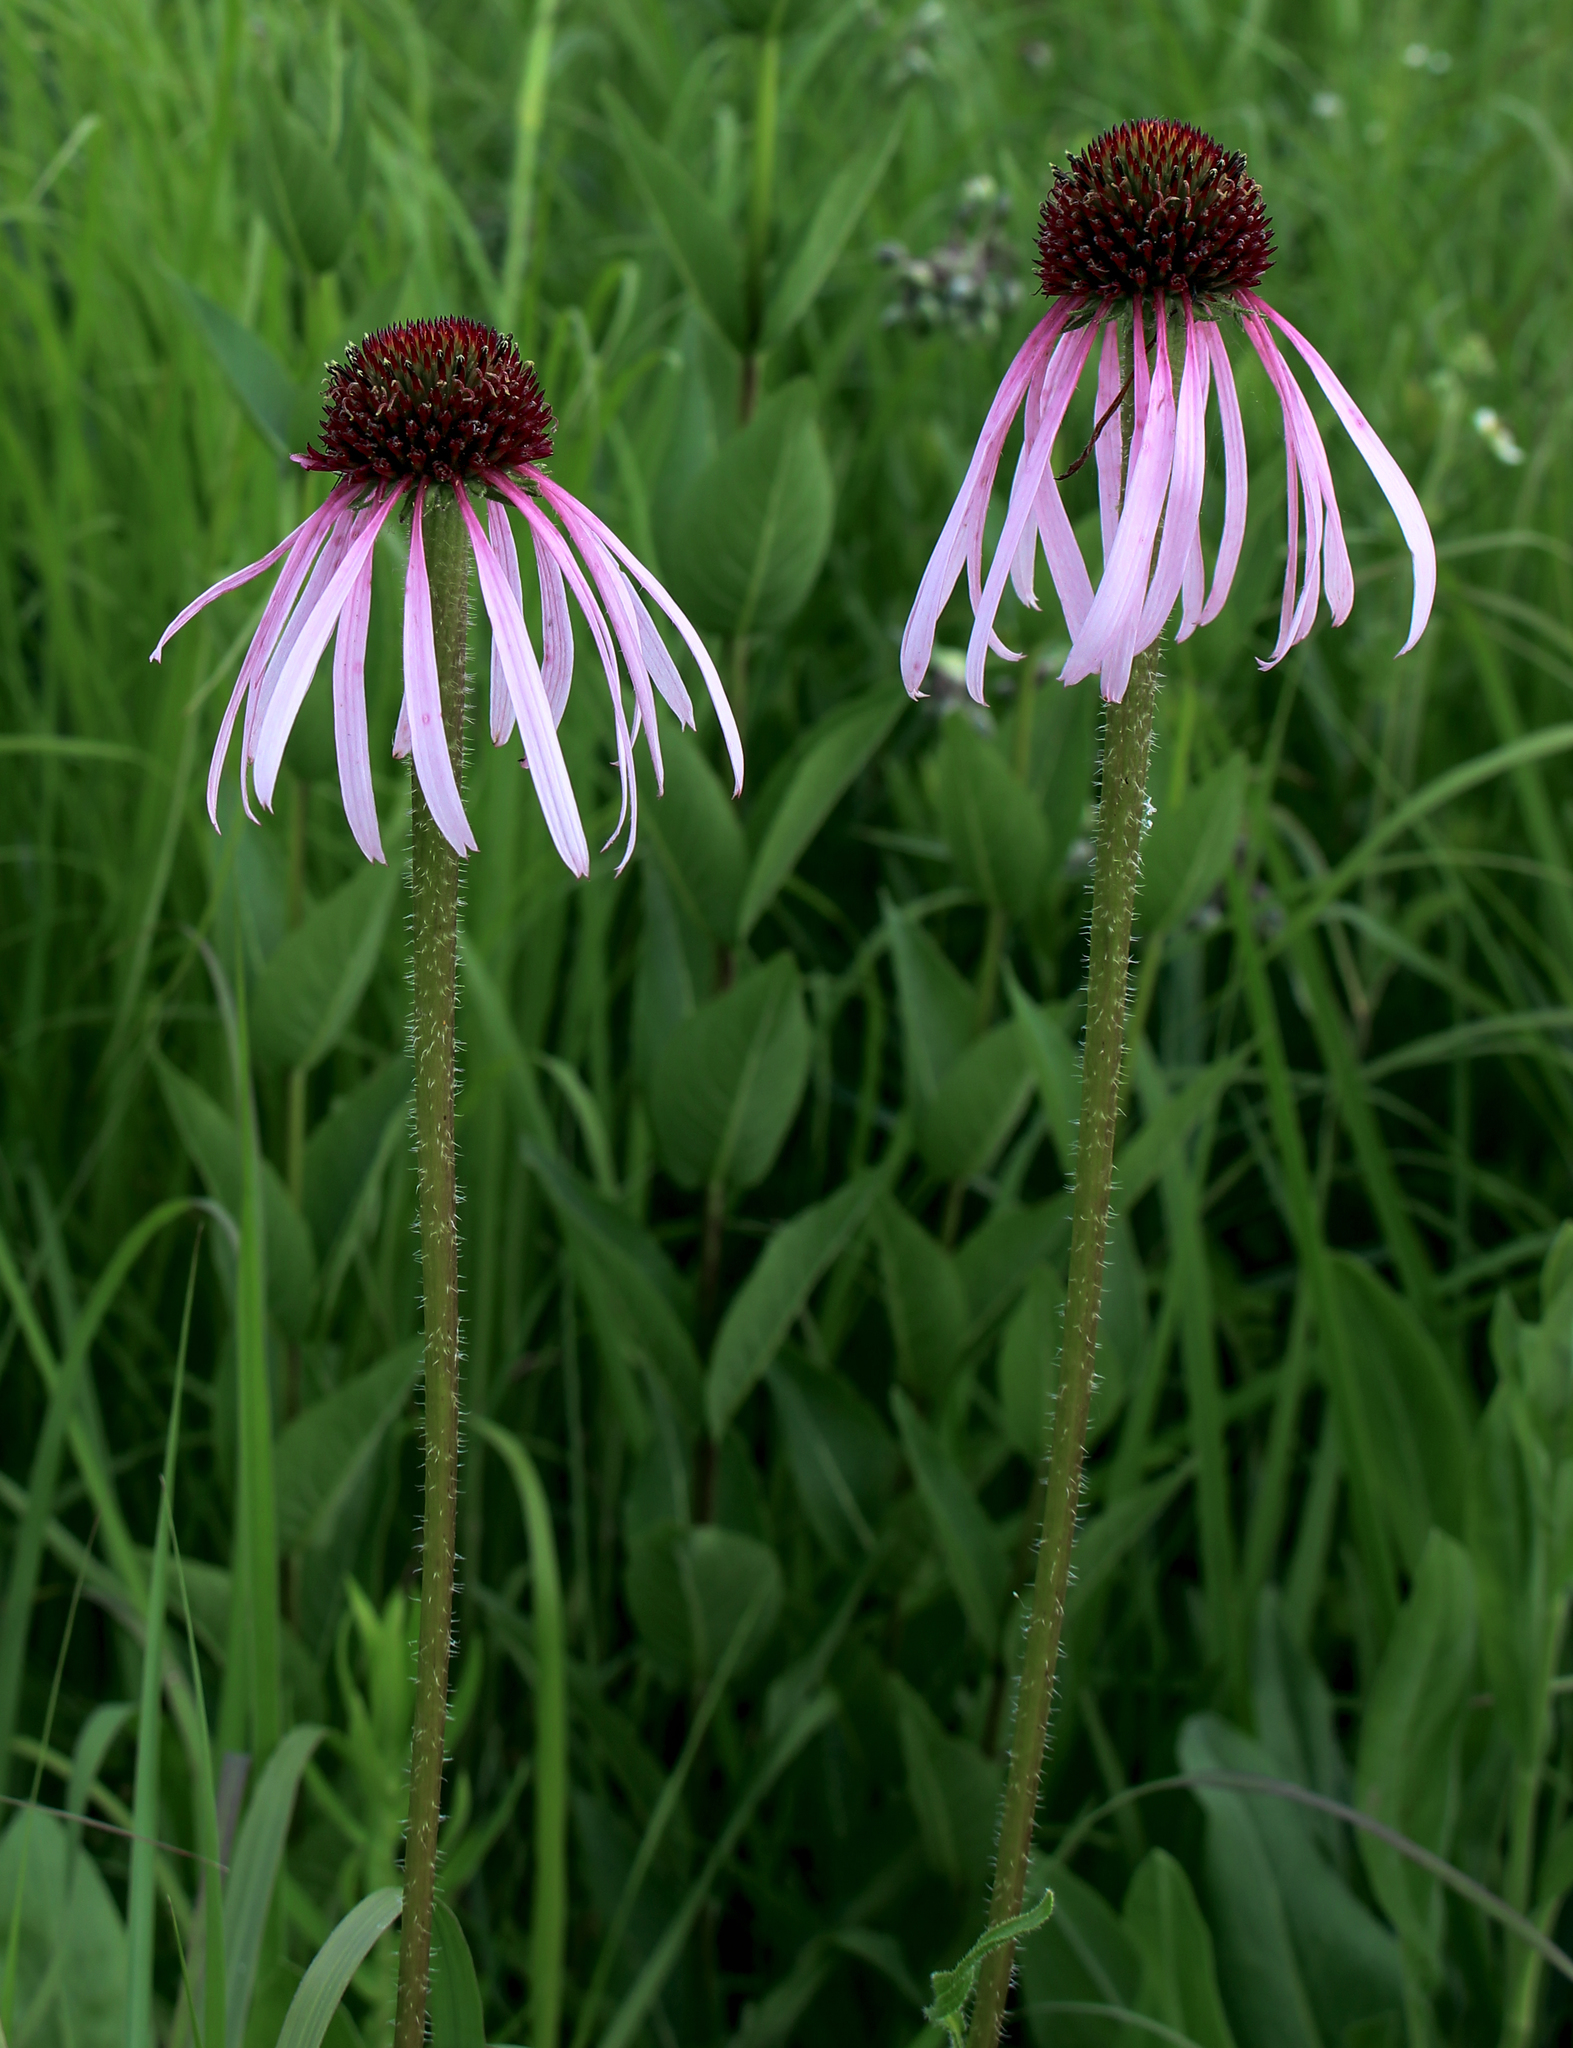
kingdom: Plantae
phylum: Tracheophyta
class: Magnoliopsida
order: Asterales
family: Asteraceae
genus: Echinacea
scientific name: Echinacea pallida
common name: Pale echinacea
